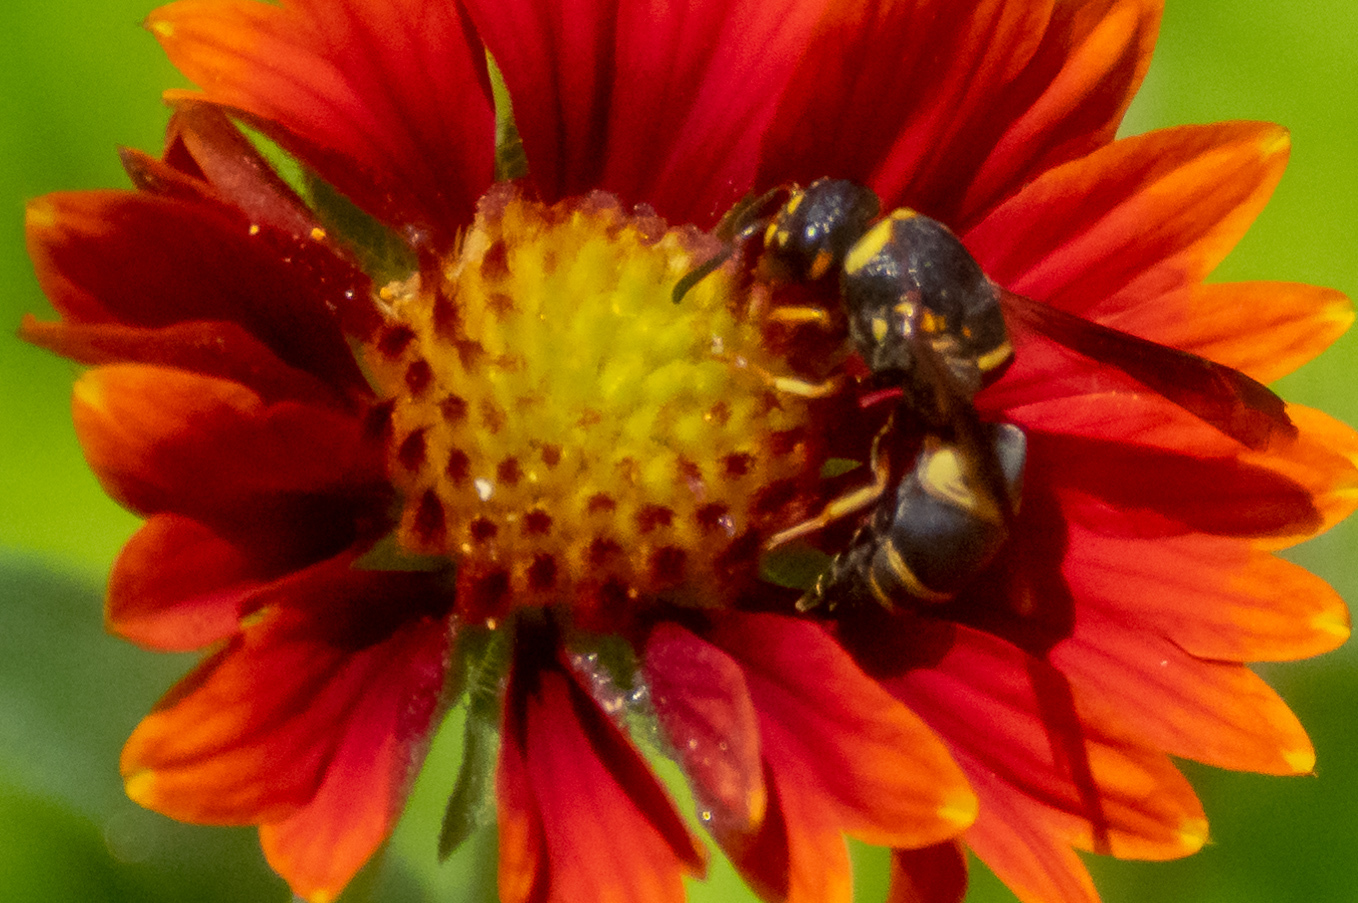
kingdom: Animalia
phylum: Arthropoda
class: Insecta
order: Hymenoptera
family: Eumenidae
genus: Euodynerus
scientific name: Euodynerus hidalgo
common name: Wasp
